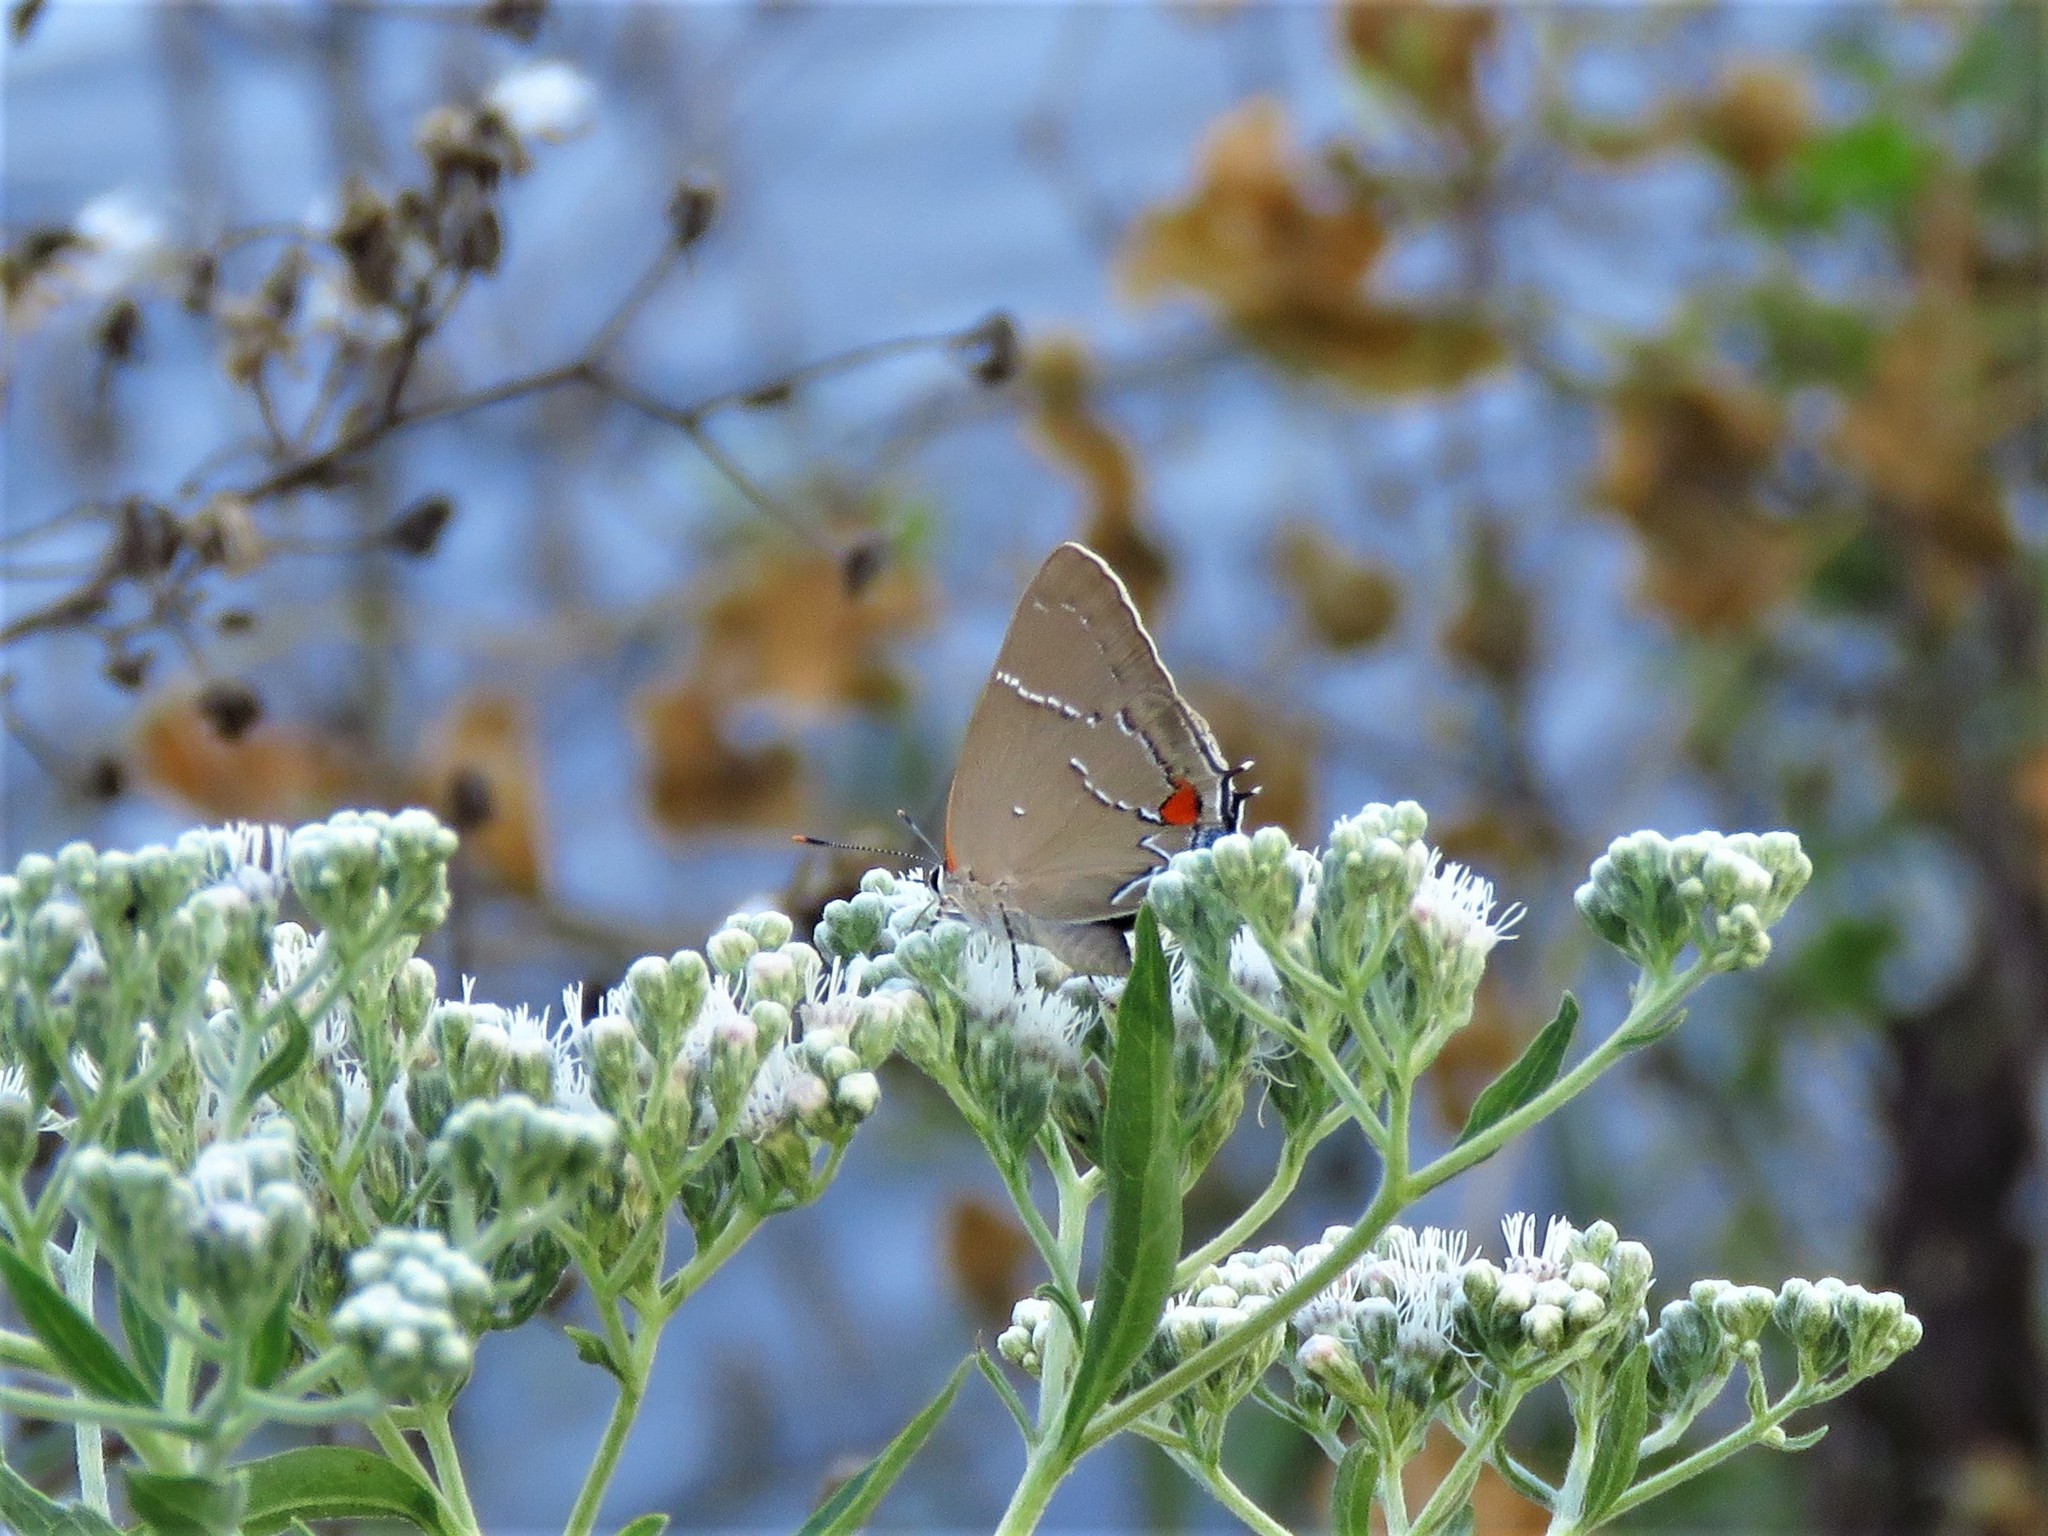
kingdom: Animalia
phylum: Arthropoda
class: Insecta
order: Lepidoptera
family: Lycaenidae
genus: Parrhasius
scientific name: Parrhasius m-album
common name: White m hairstreak
